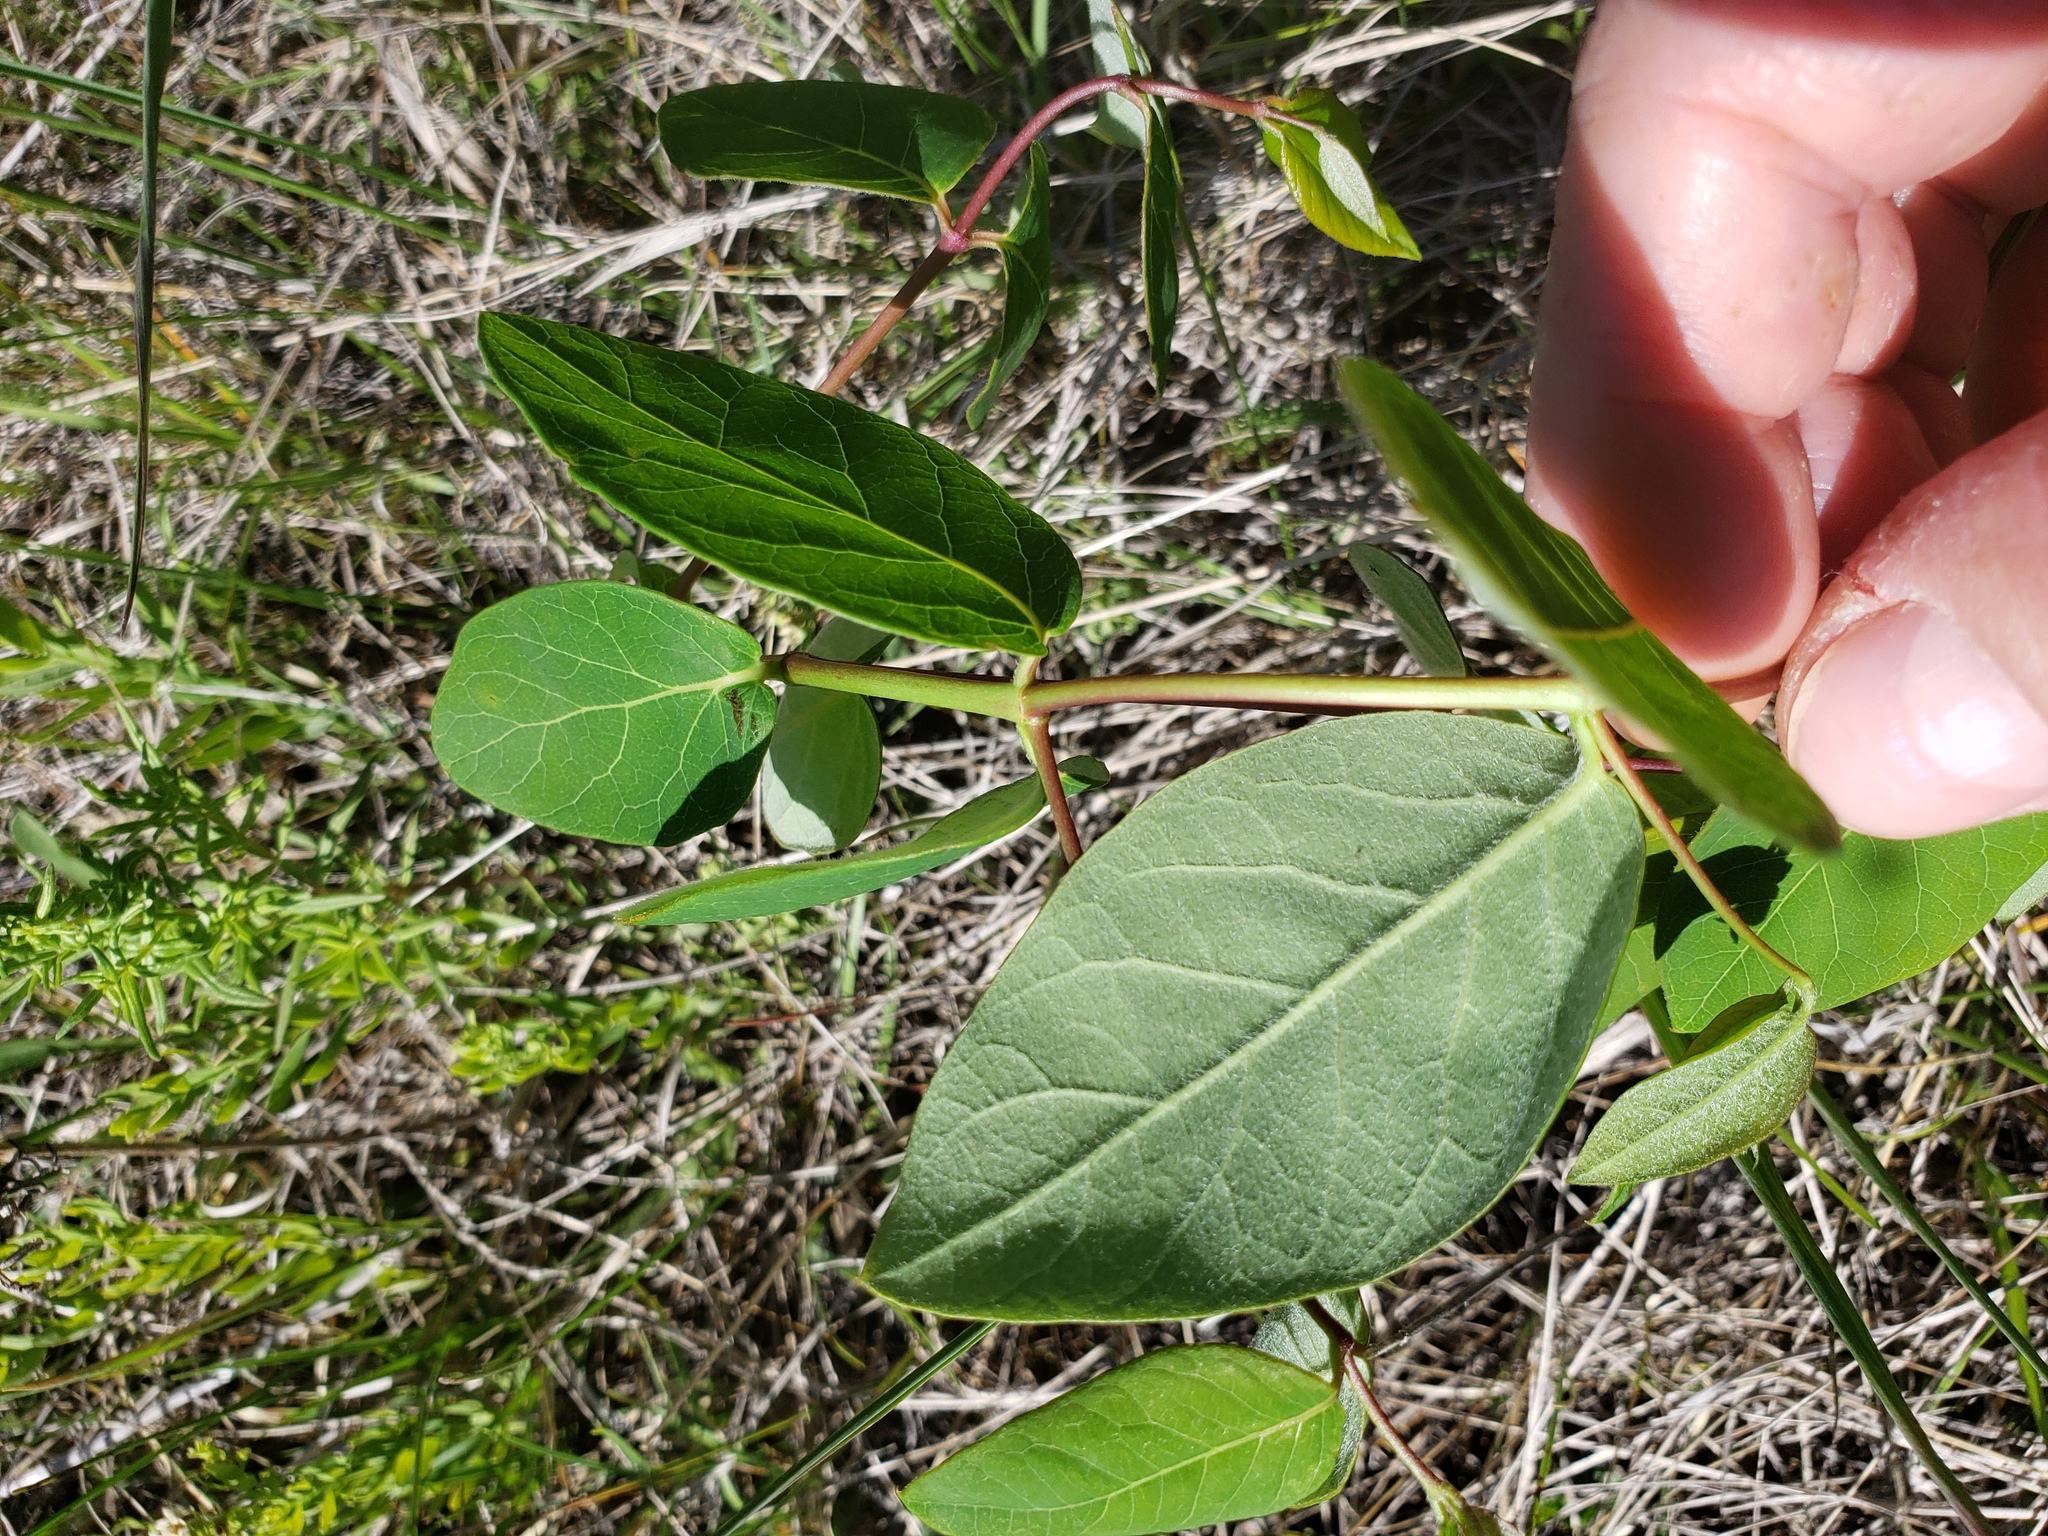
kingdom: Plantae
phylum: Tracheophyta
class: Magnoliopsida
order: Gentianales
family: Apocynaceae
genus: Apocynum
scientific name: Apocynum androsaemifolium
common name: Spreading dogbane
